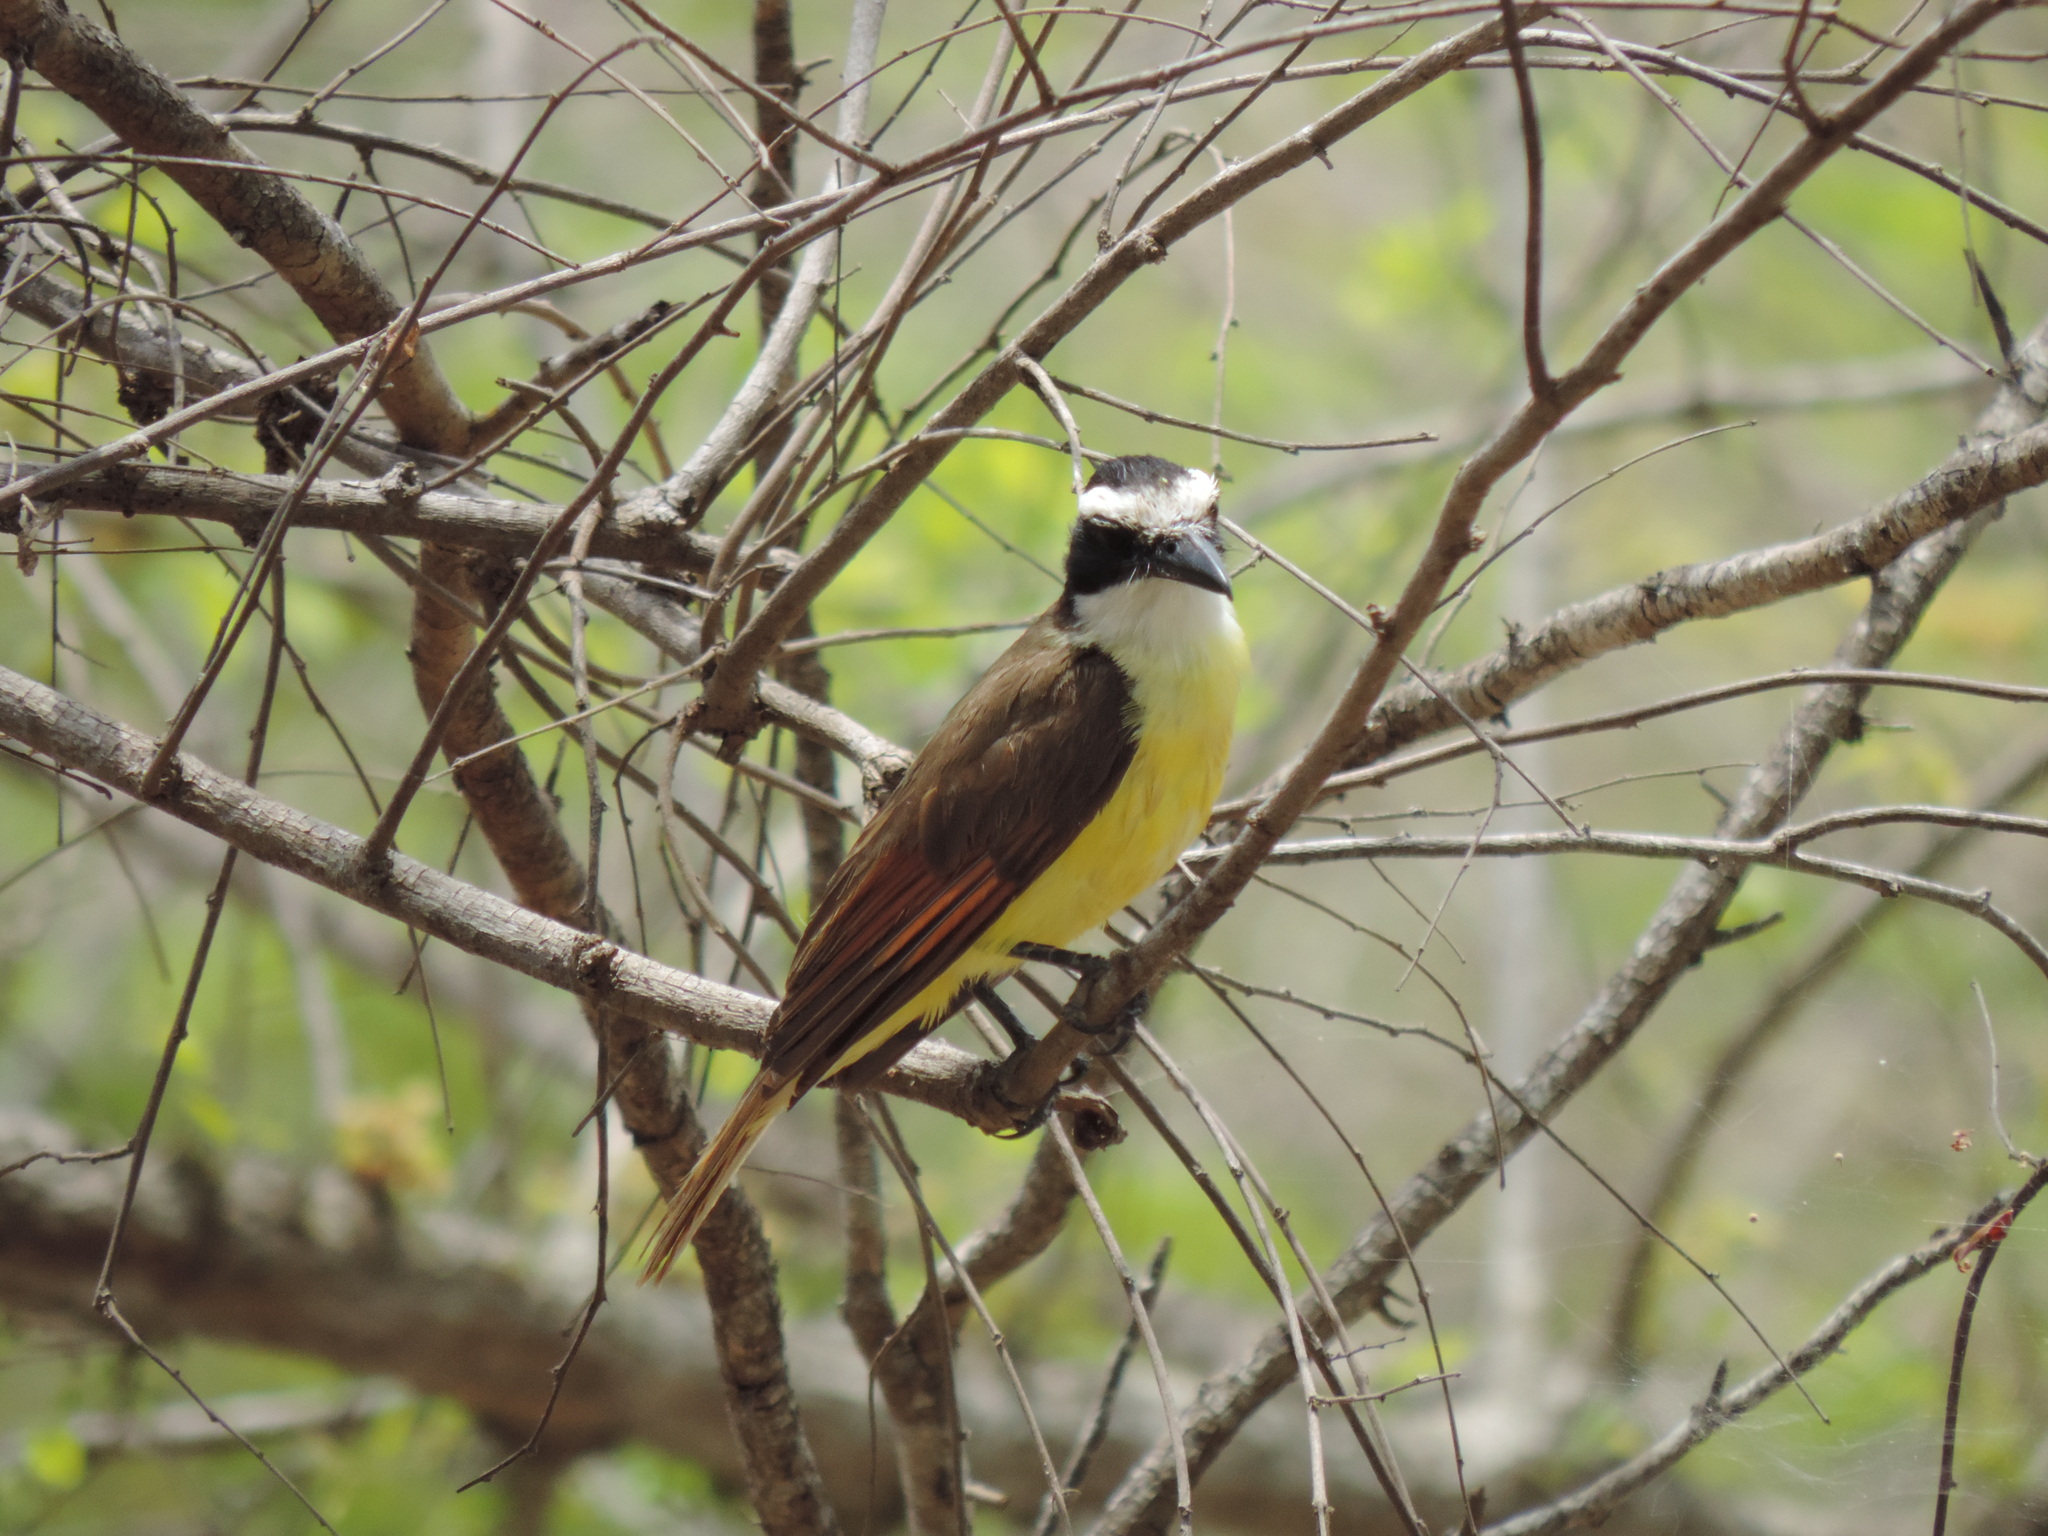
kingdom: Animalia
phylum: Chordata
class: Aves
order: Passeriformes
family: Tyrannidae
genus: Pitangus
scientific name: Pitangus sulphuratus
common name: Great kiskadee
